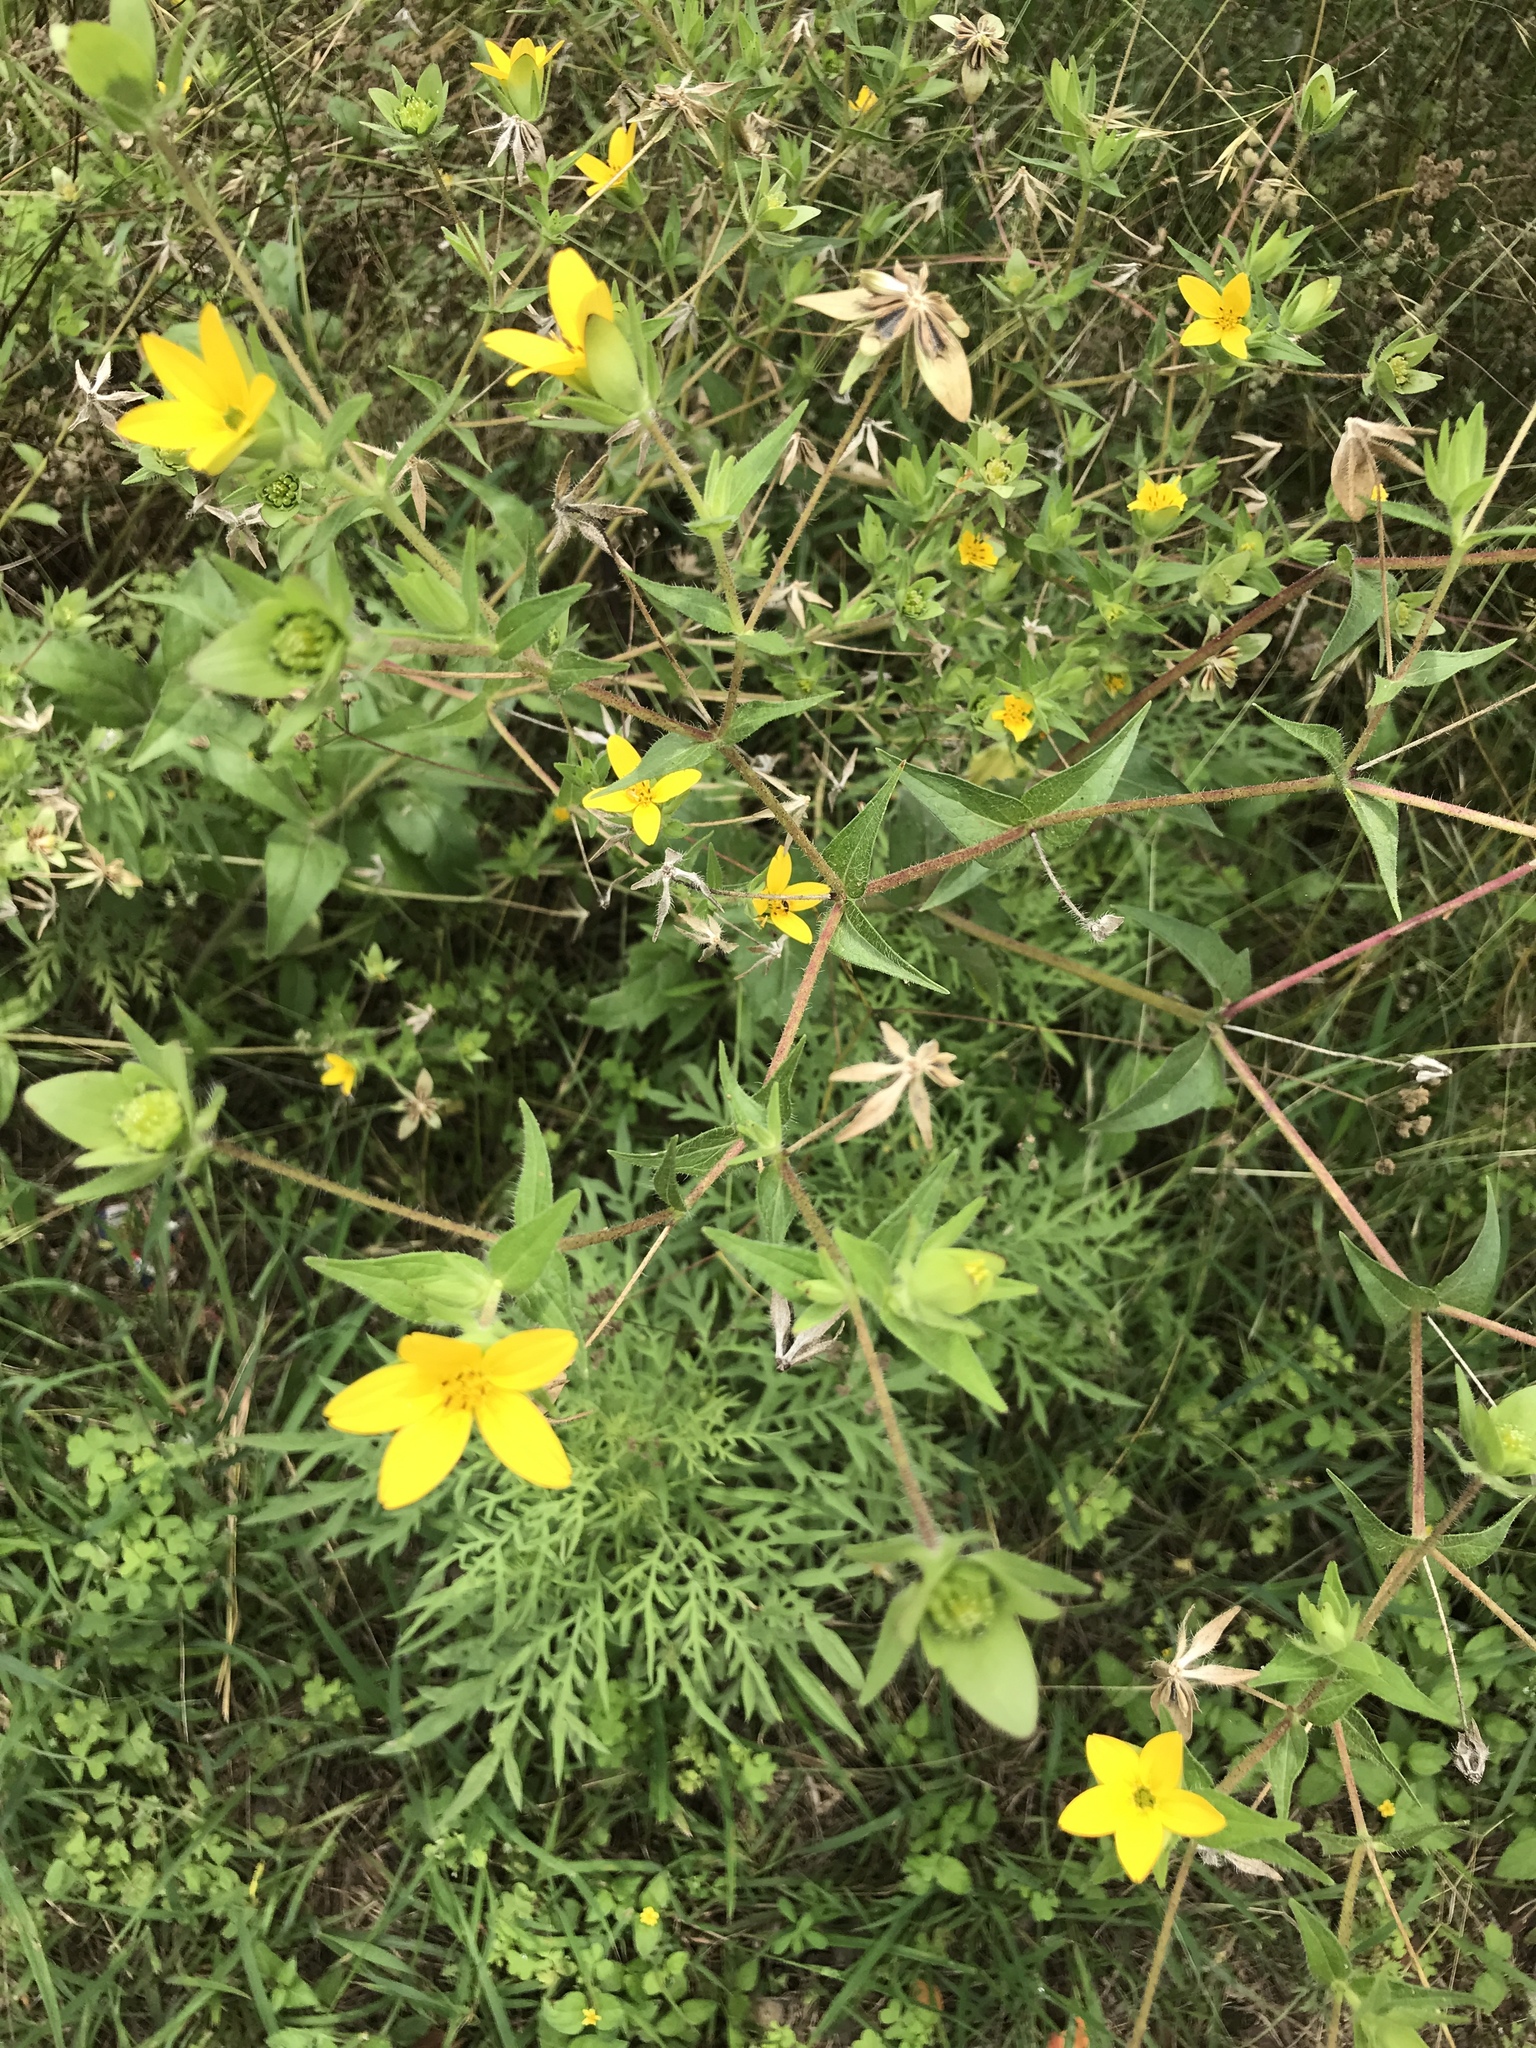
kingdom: Plantae
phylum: Tracheophyta
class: Magnoliopsida
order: Asterales
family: Asteraceae
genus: Lindheimera
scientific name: Lindheimera texana
